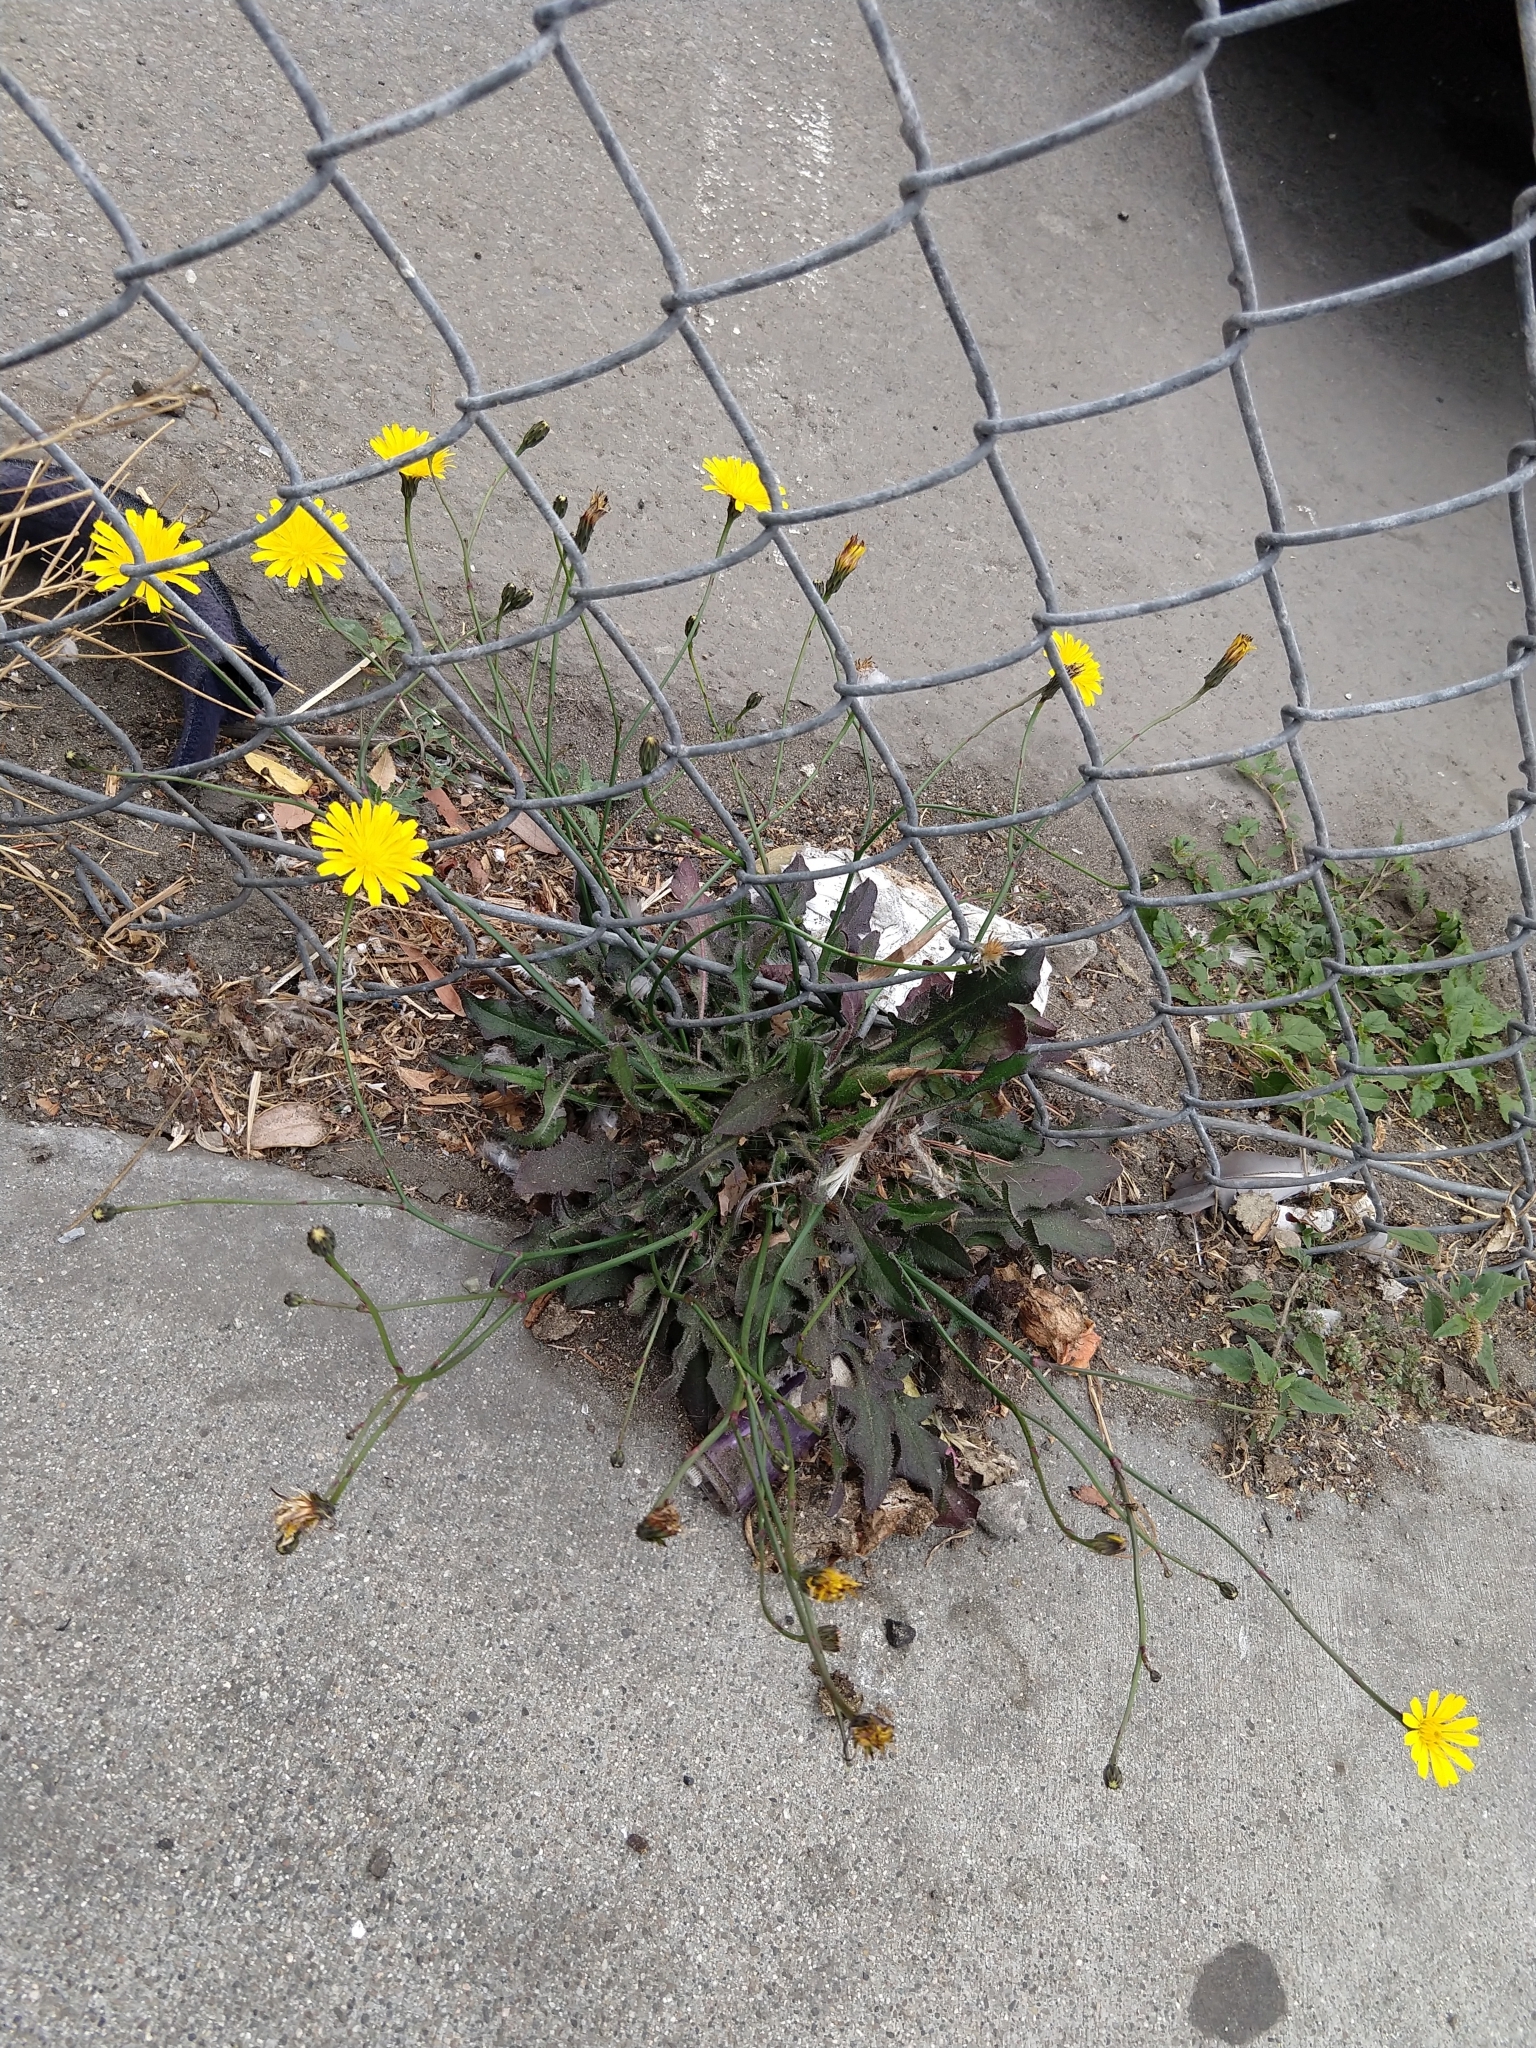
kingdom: Plantae
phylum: Tracheophyta
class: Magnoliopsida
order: Asterales
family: Asteraceae
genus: Hypochaeris
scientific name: Hypochaeris radicata
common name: Flatweed
